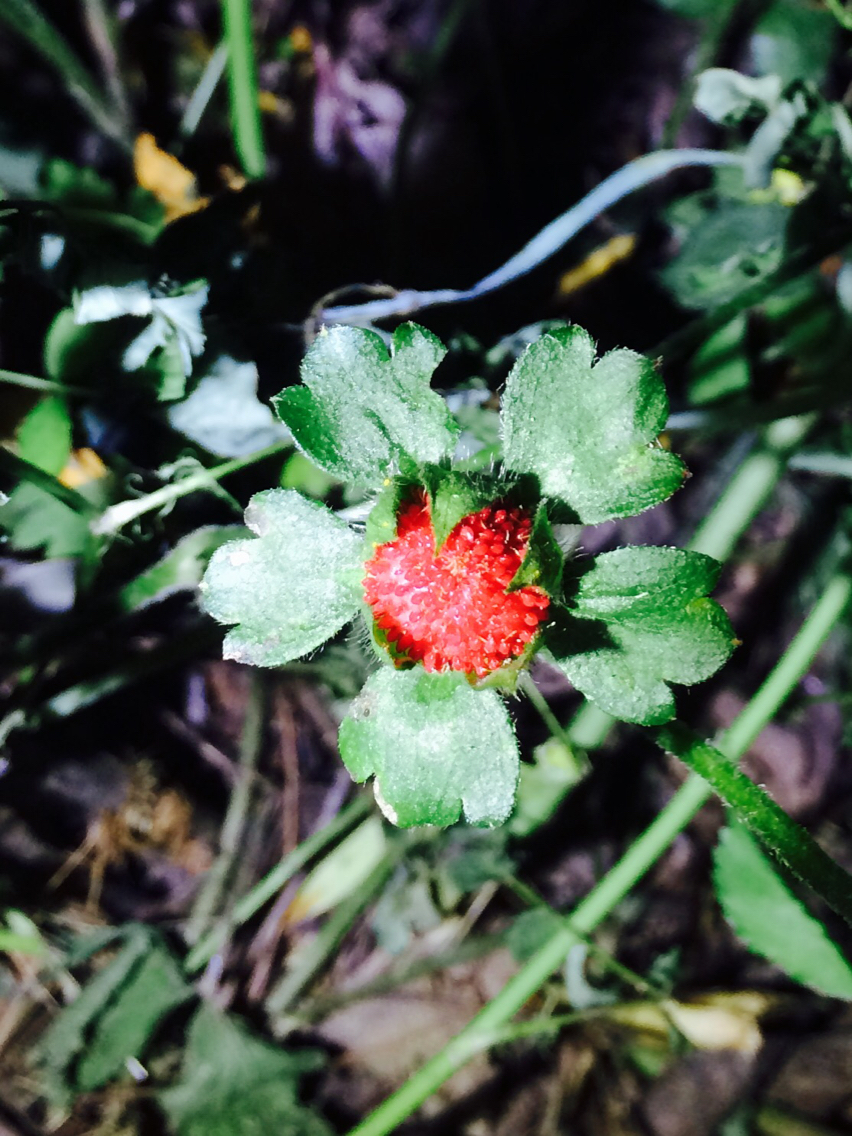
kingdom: Plantae
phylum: Tracheophyta
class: Magnoliopsida
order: Rosales
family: Rosaceae
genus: Potentilla
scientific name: Potentilla indica
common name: Yellow-flowered strawberry
